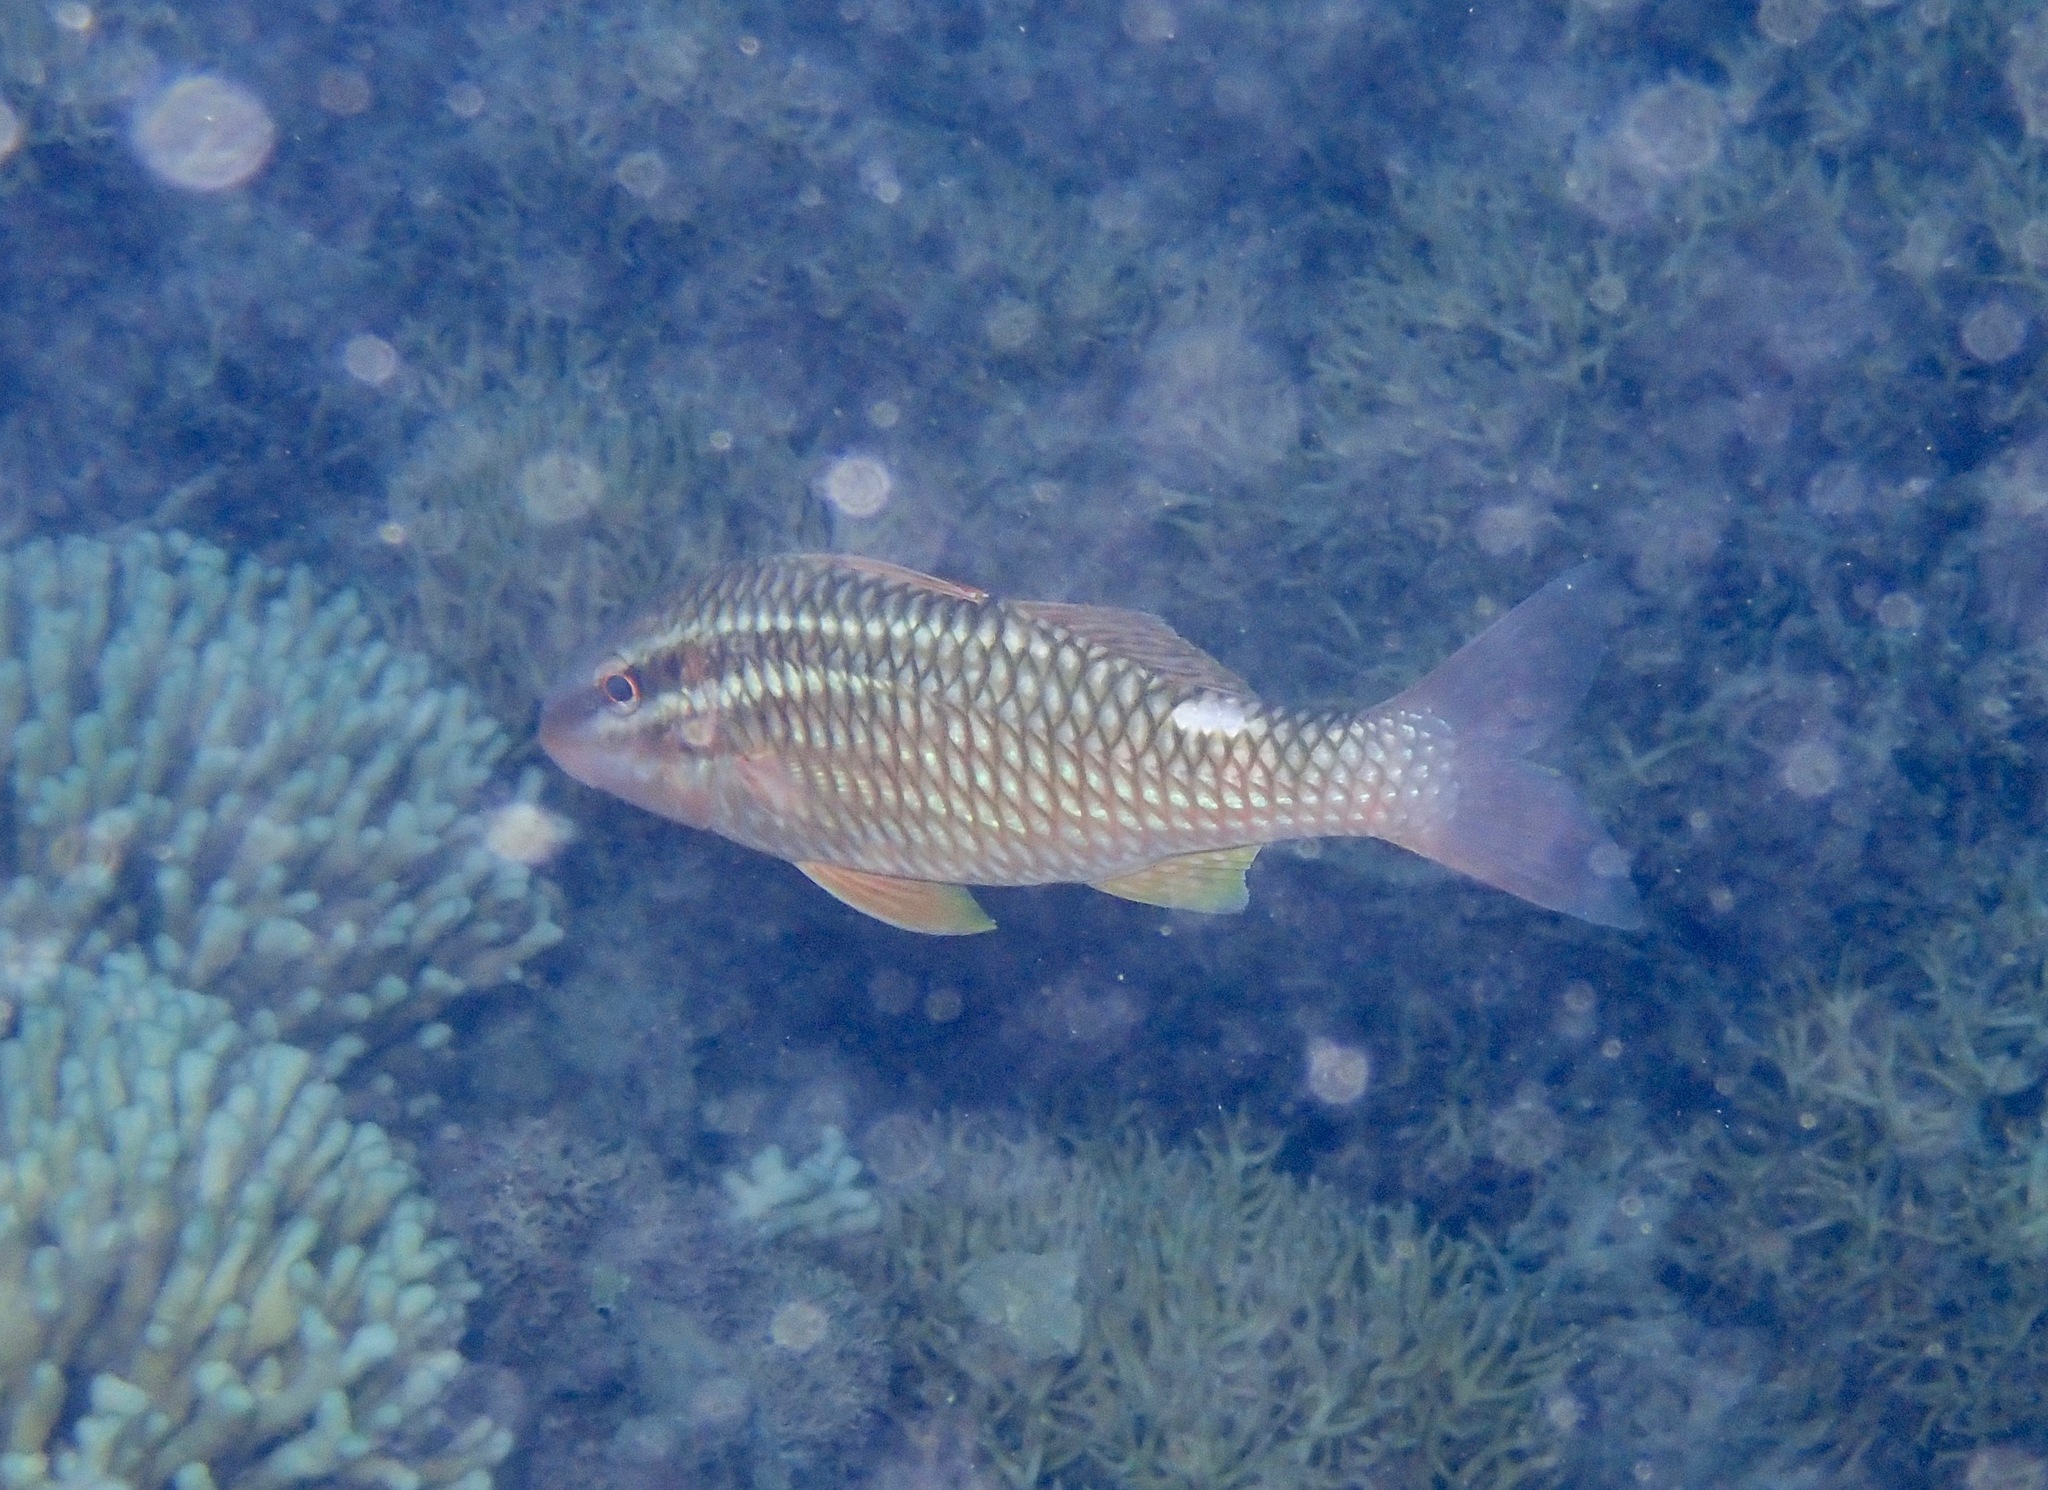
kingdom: Animalia
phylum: Chordata
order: Perciformes
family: Mullidae
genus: Parupeneus
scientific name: Parupeneus ciliatus
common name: White-lined goatfish
